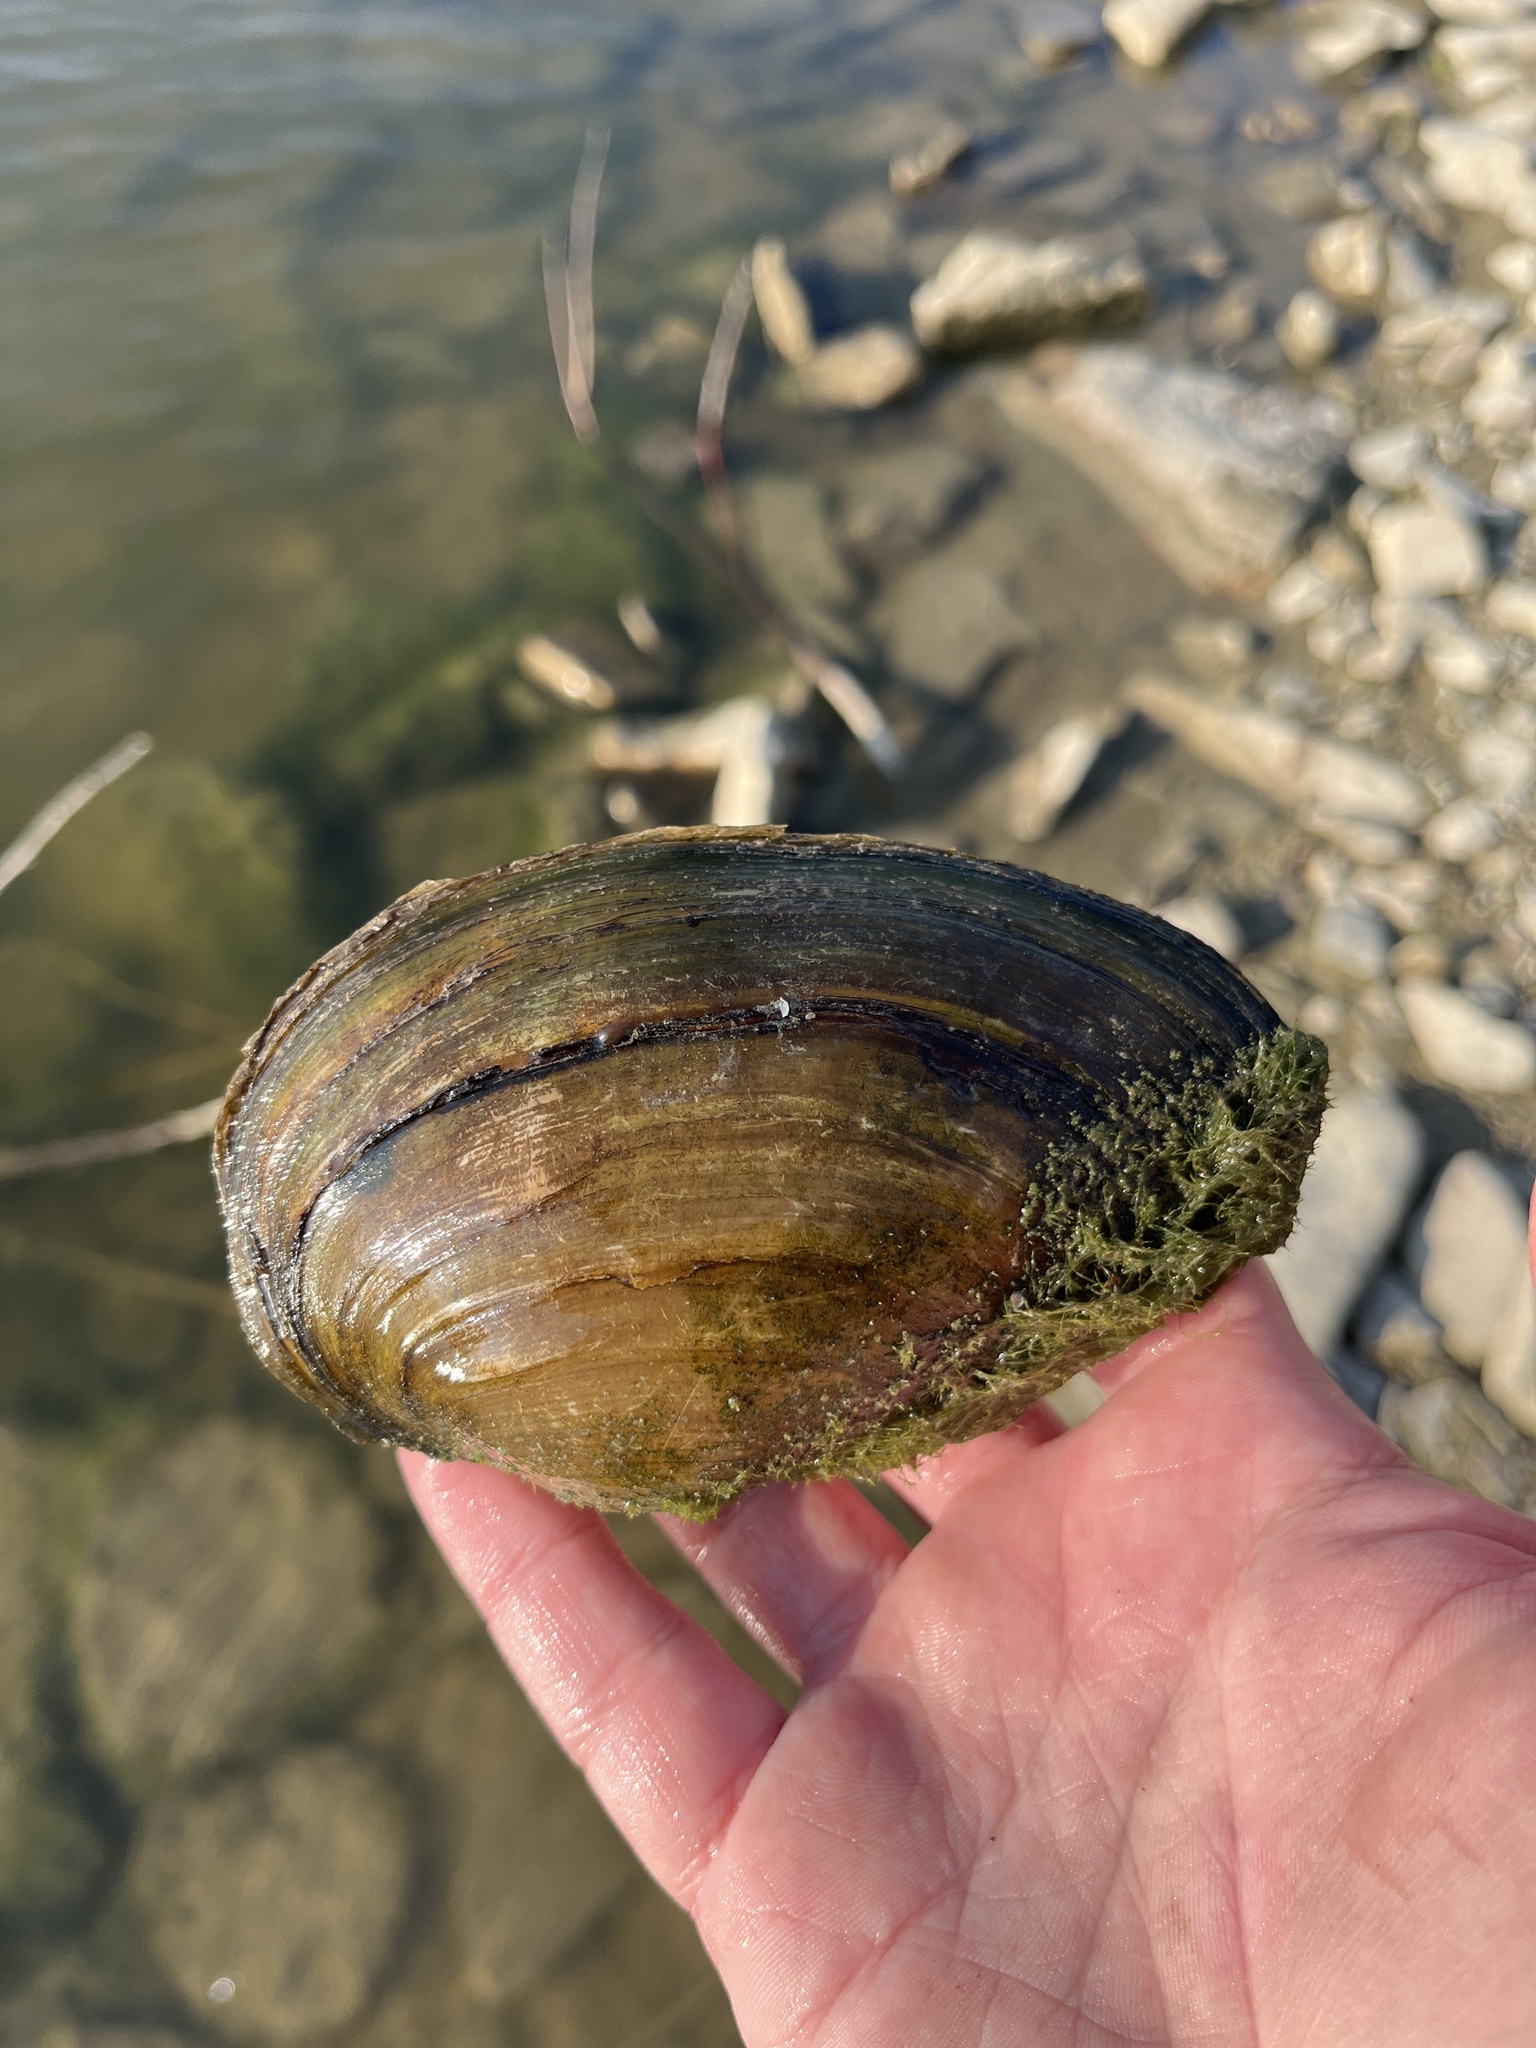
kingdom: Animalia
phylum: Mollusca
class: Bivalvia
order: Unionida
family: Unionidae
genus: Pyganodon
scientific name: Pyganodon grandis
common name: Giant floater
